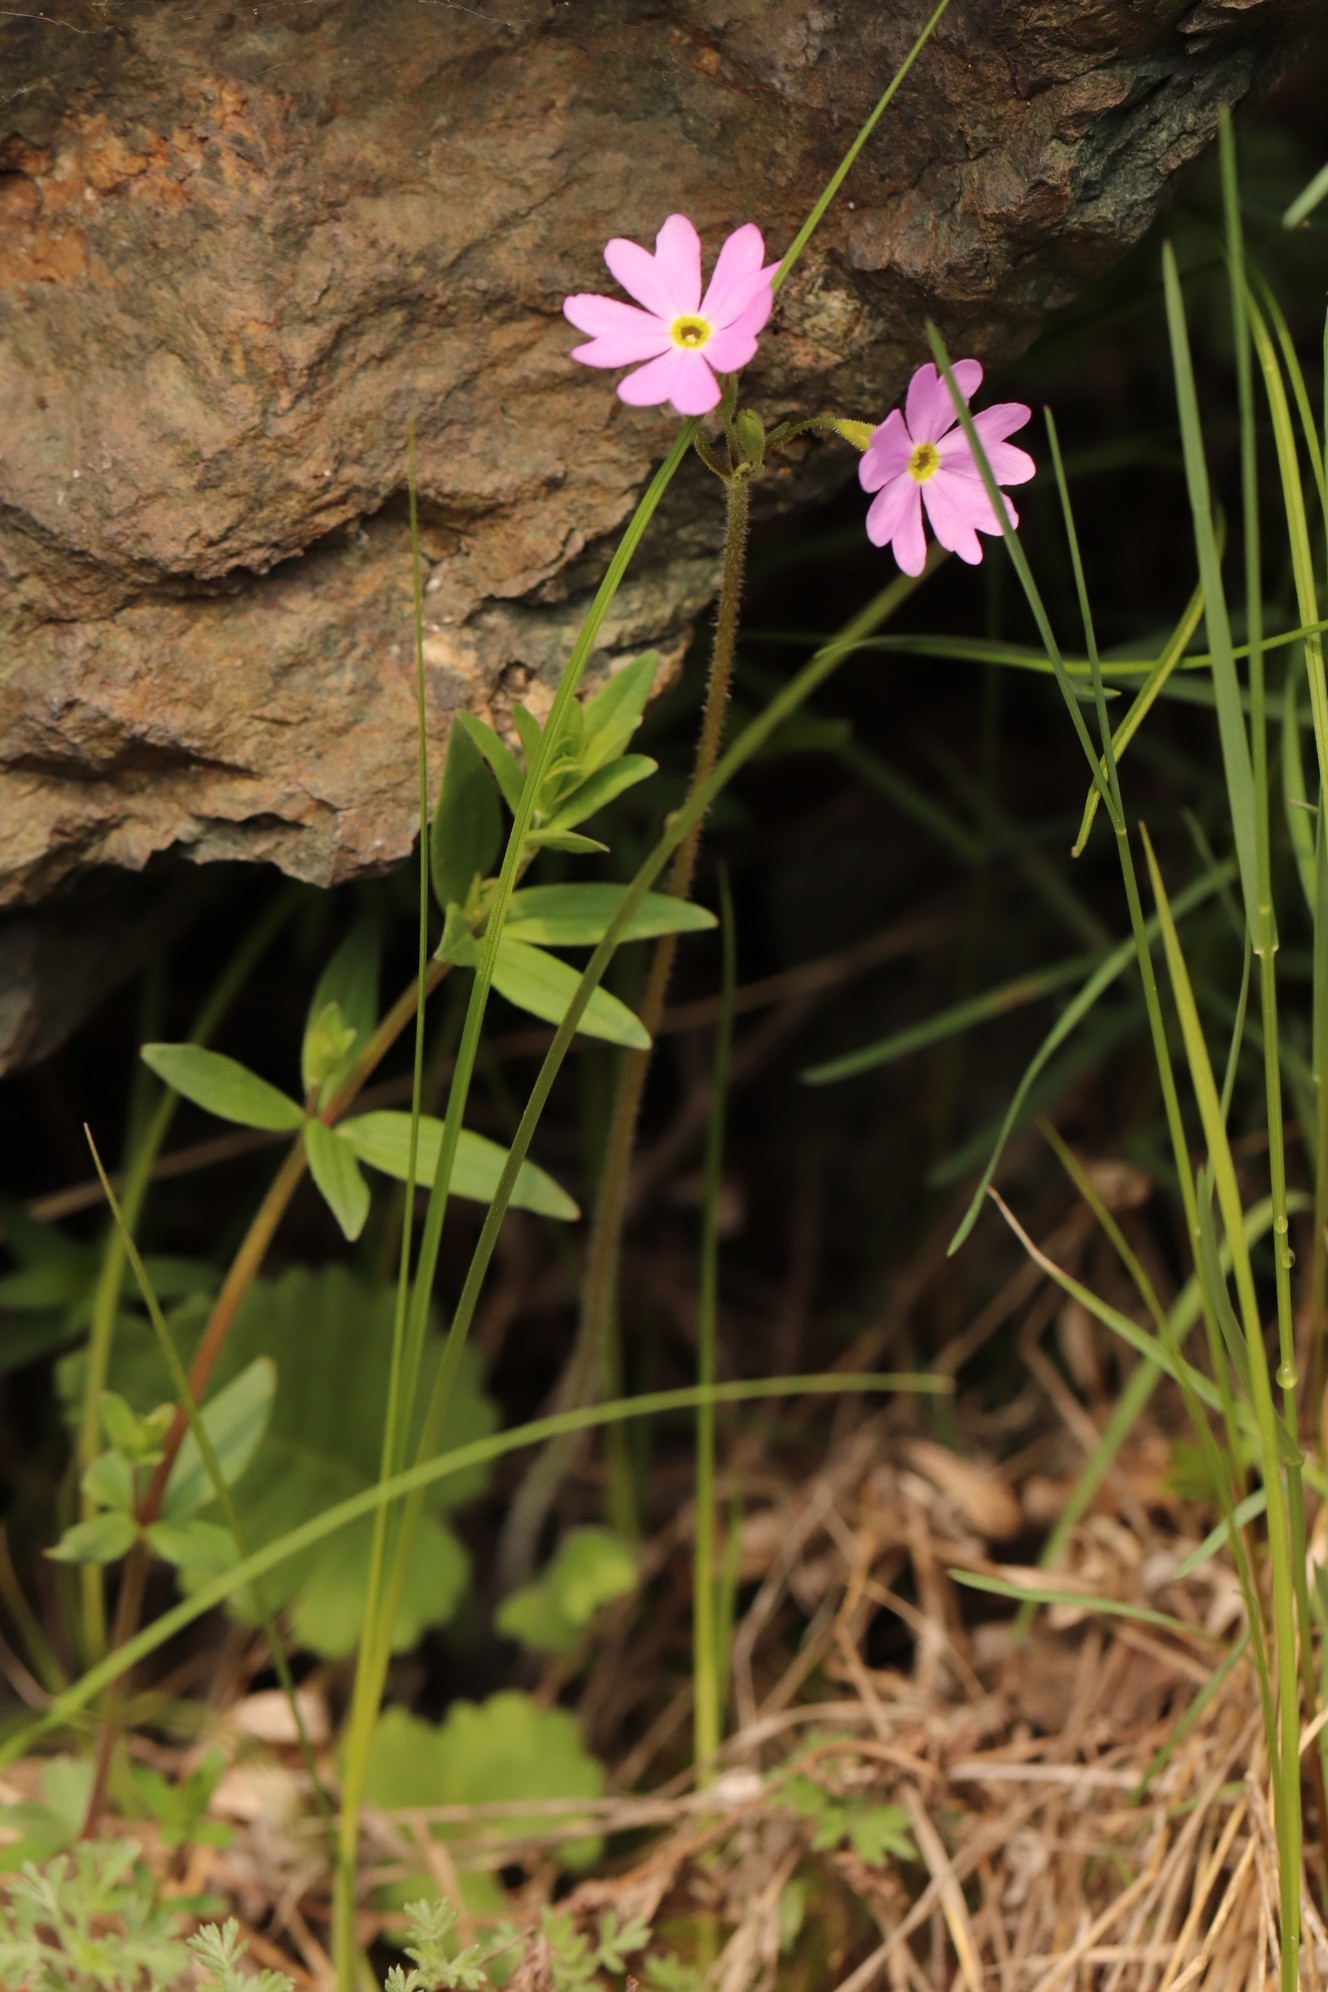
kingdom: Plantae
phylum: Tracheophyta
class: Magnoliopsida
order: Ericales
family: Primulaceae
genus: Primula
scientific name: Primula cortusoides
